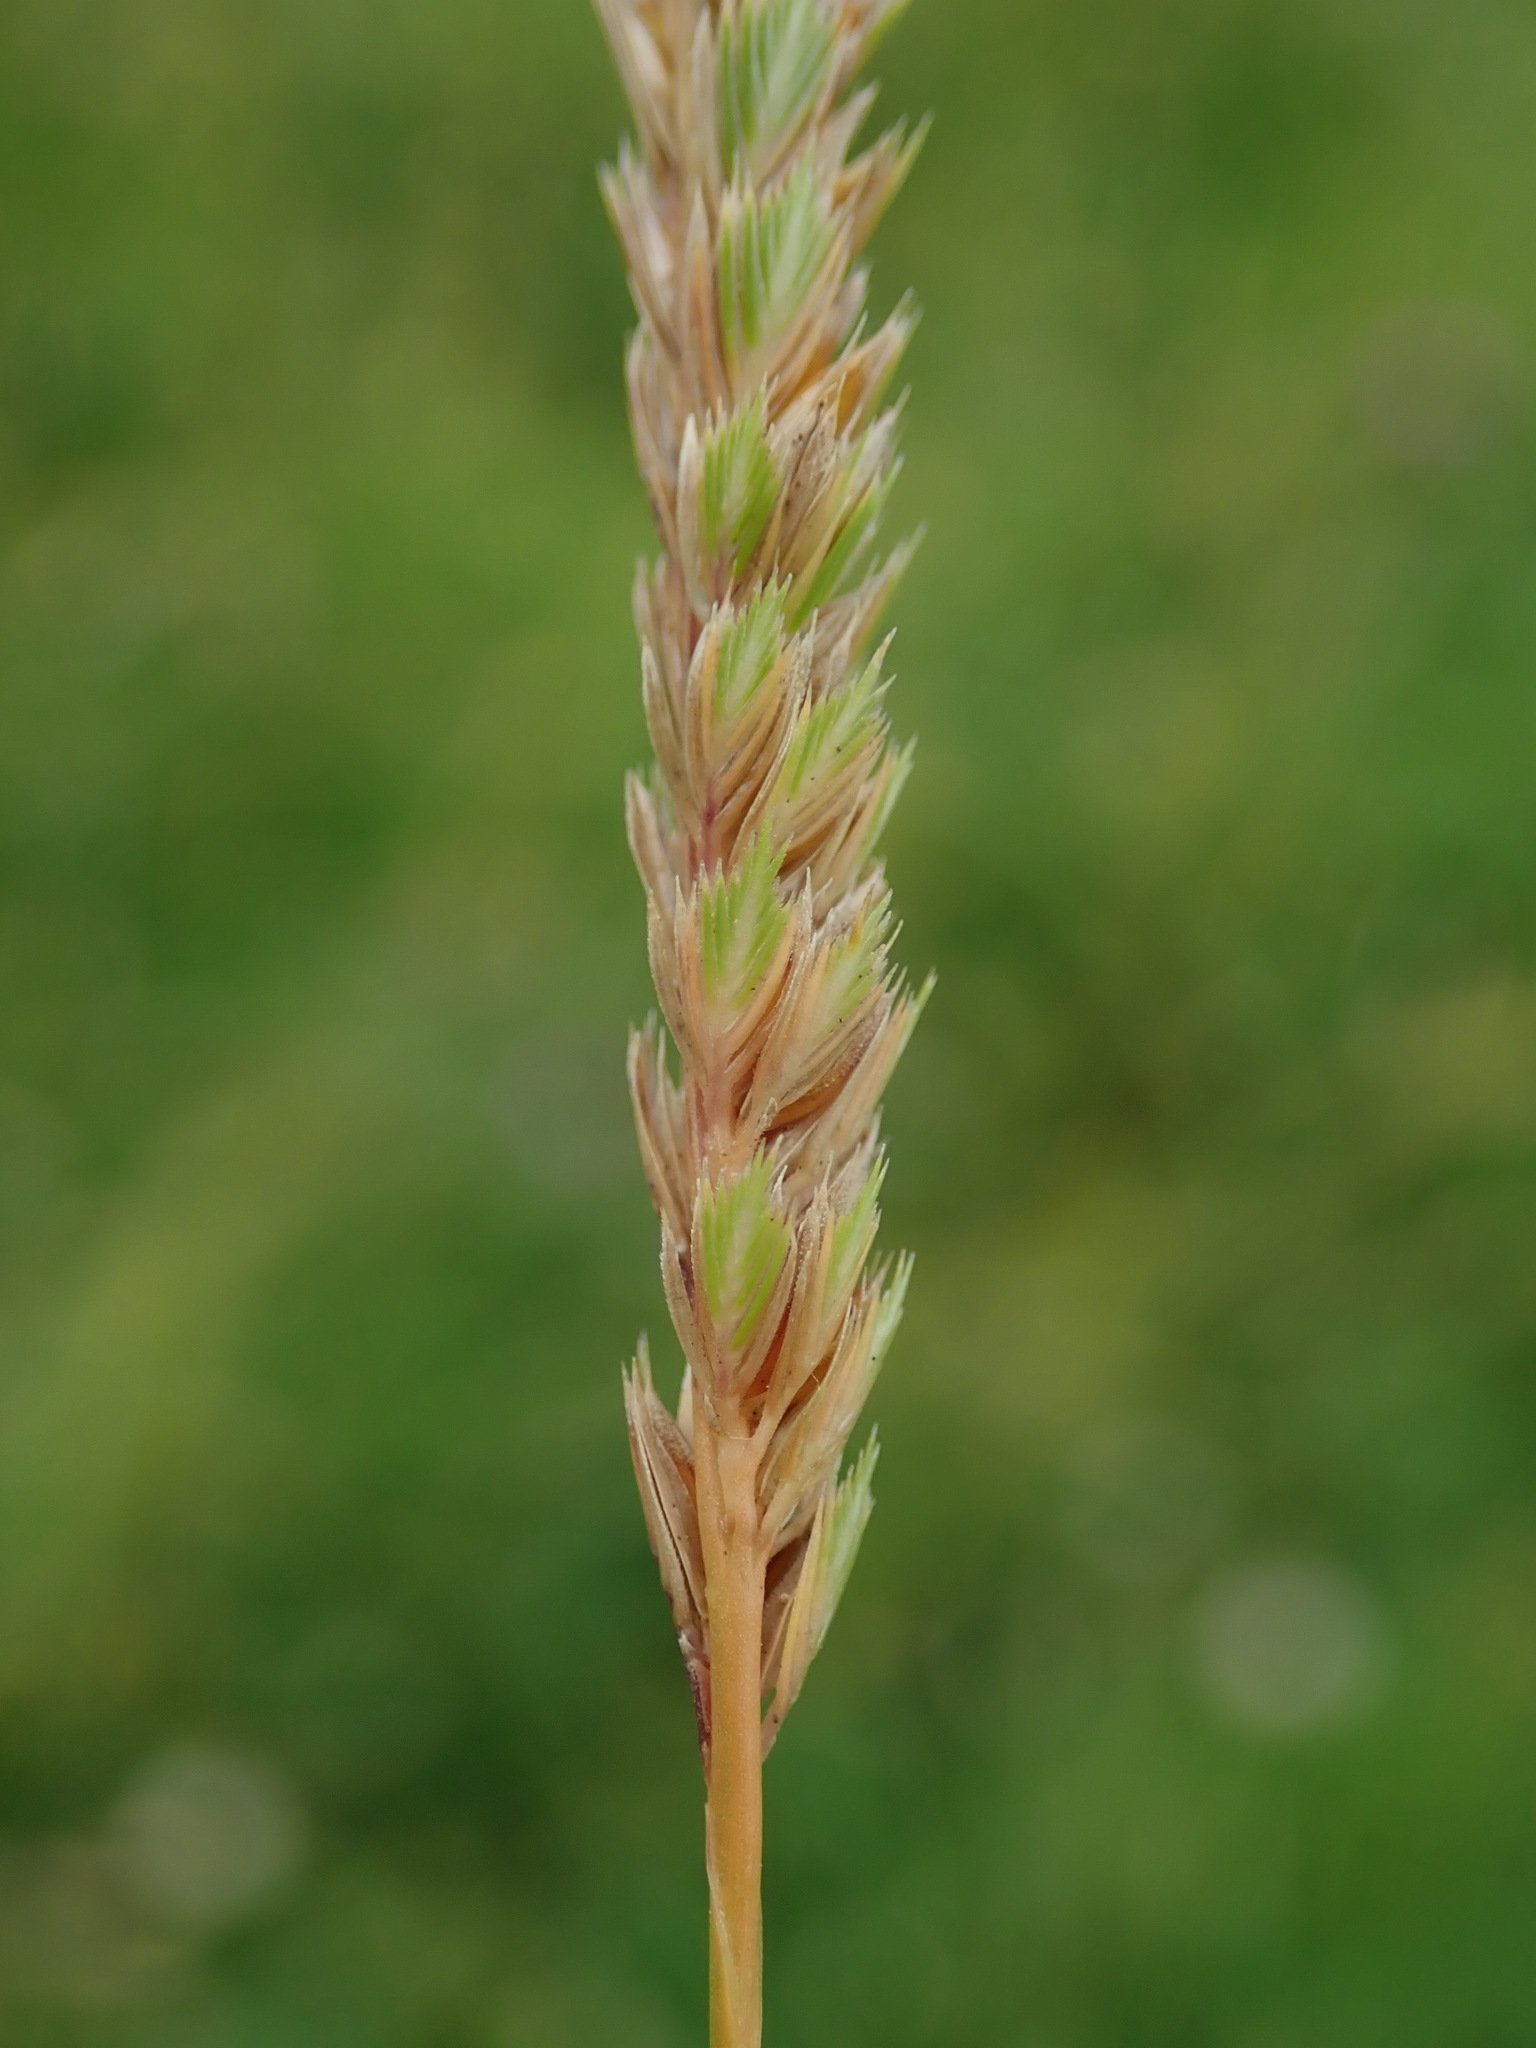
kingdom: Plantae
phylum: Tracheophyta
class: Liliopsida
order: Poales
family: Poaceae
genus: Cynosurus
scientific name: Cynosurus cristatus
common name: Crested dog's-tail
